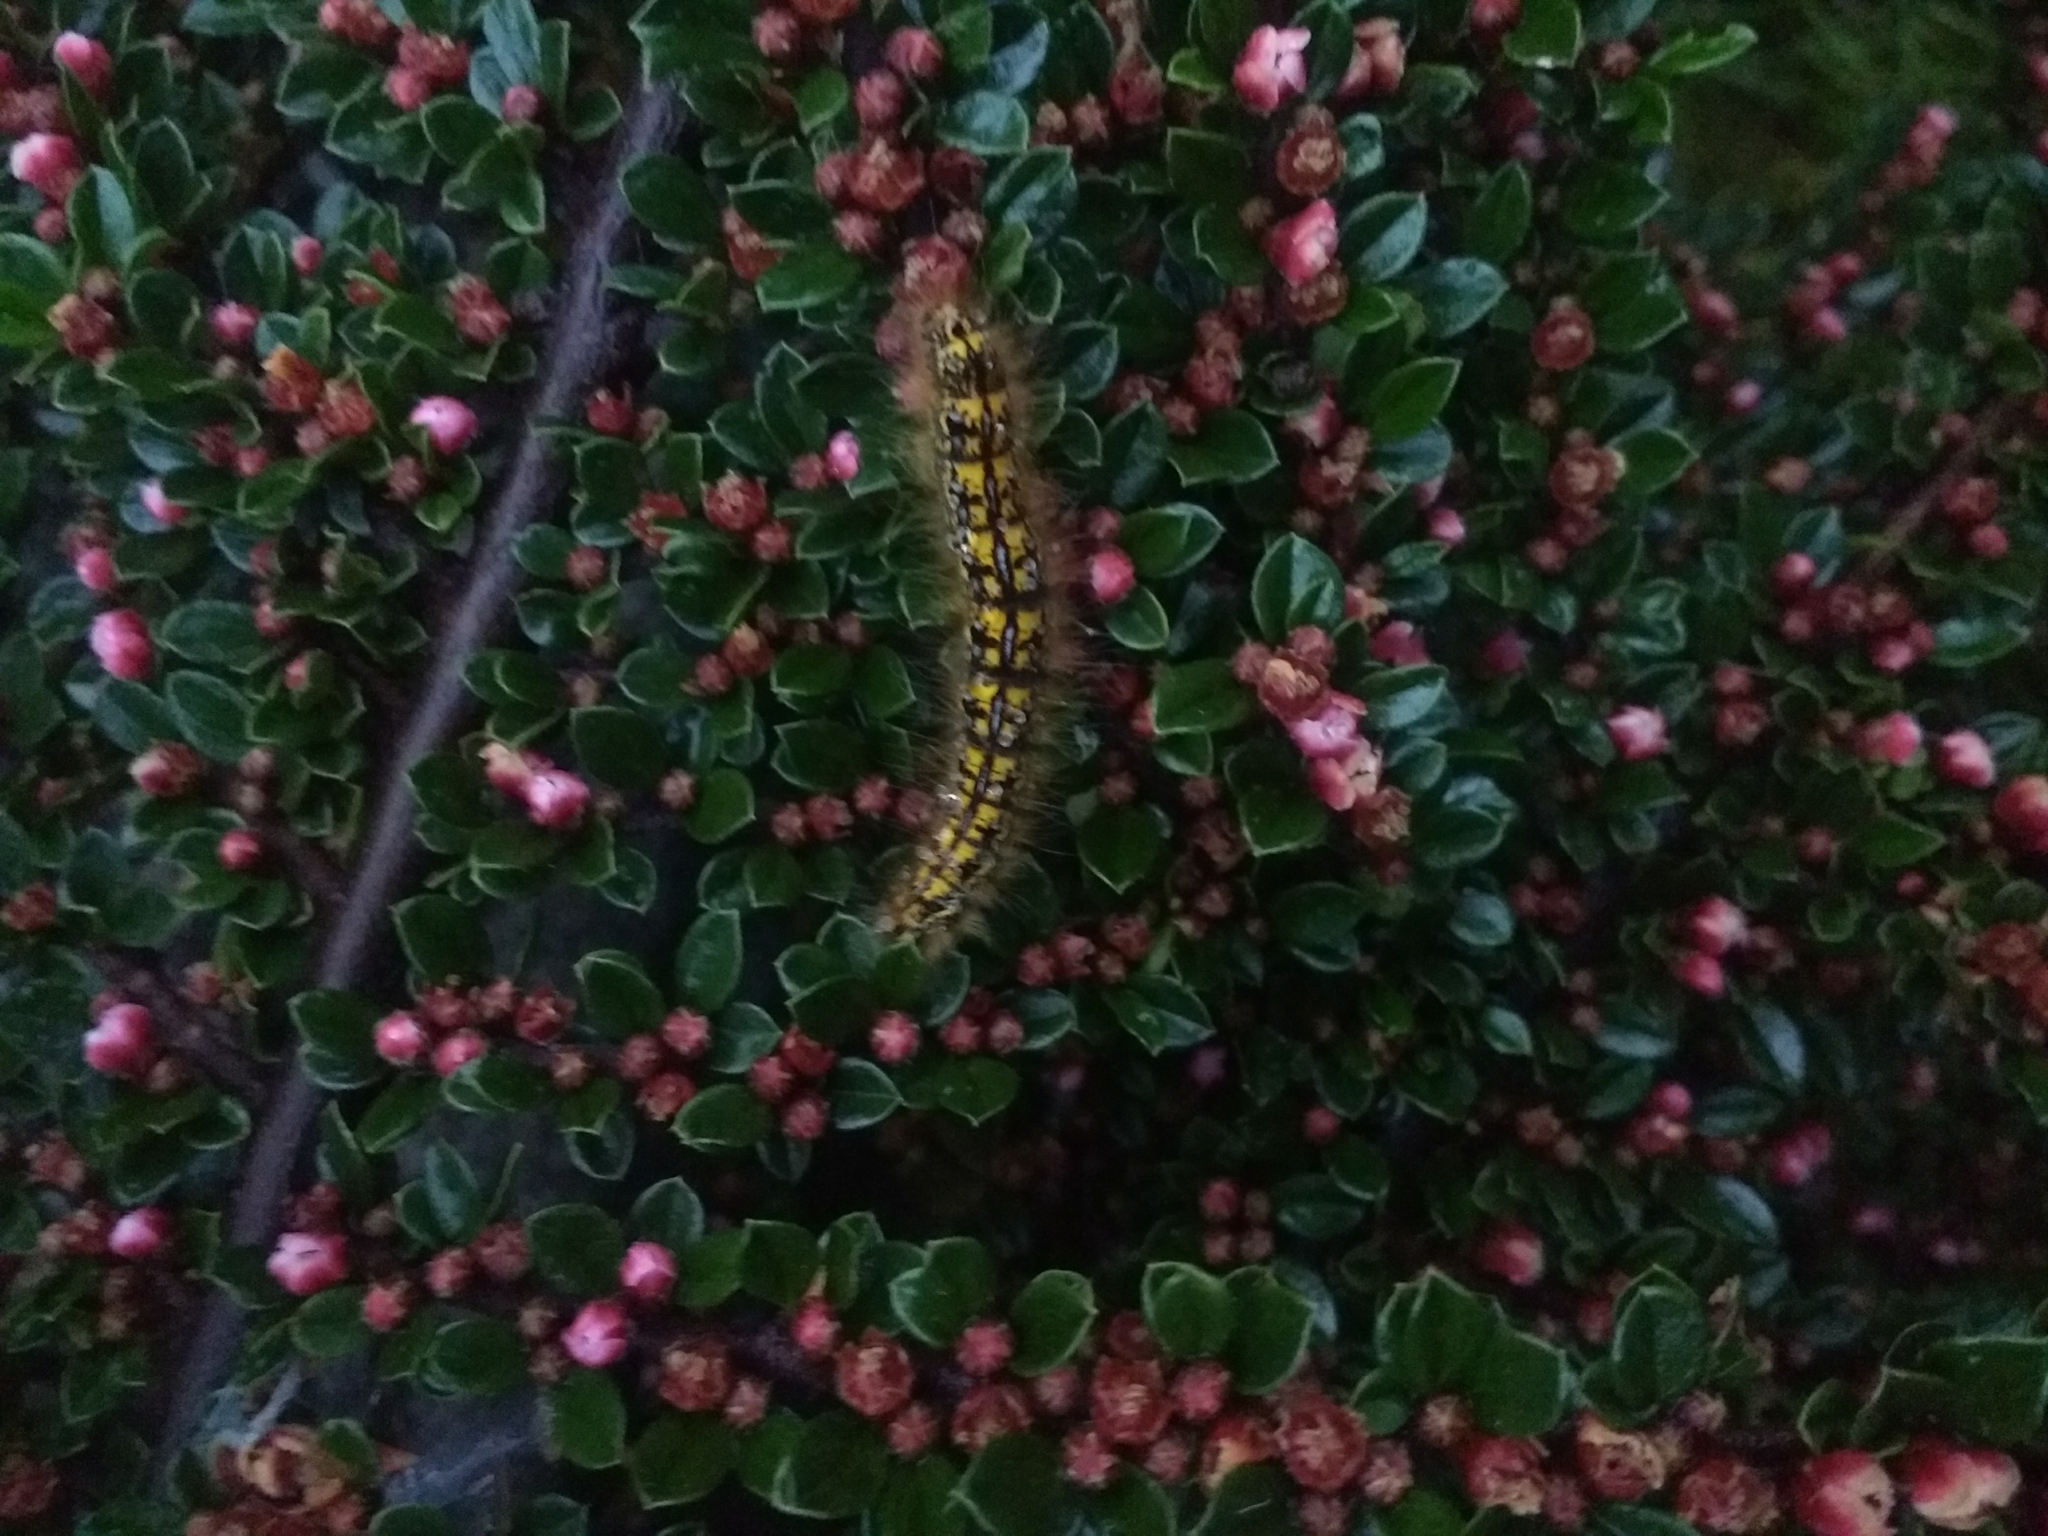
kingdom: Animalia
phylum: Arthropoda
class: Insecta
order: Lepidoptera
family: Lasiocampidae
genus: Malacosoma
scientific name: Malacosoma californica
